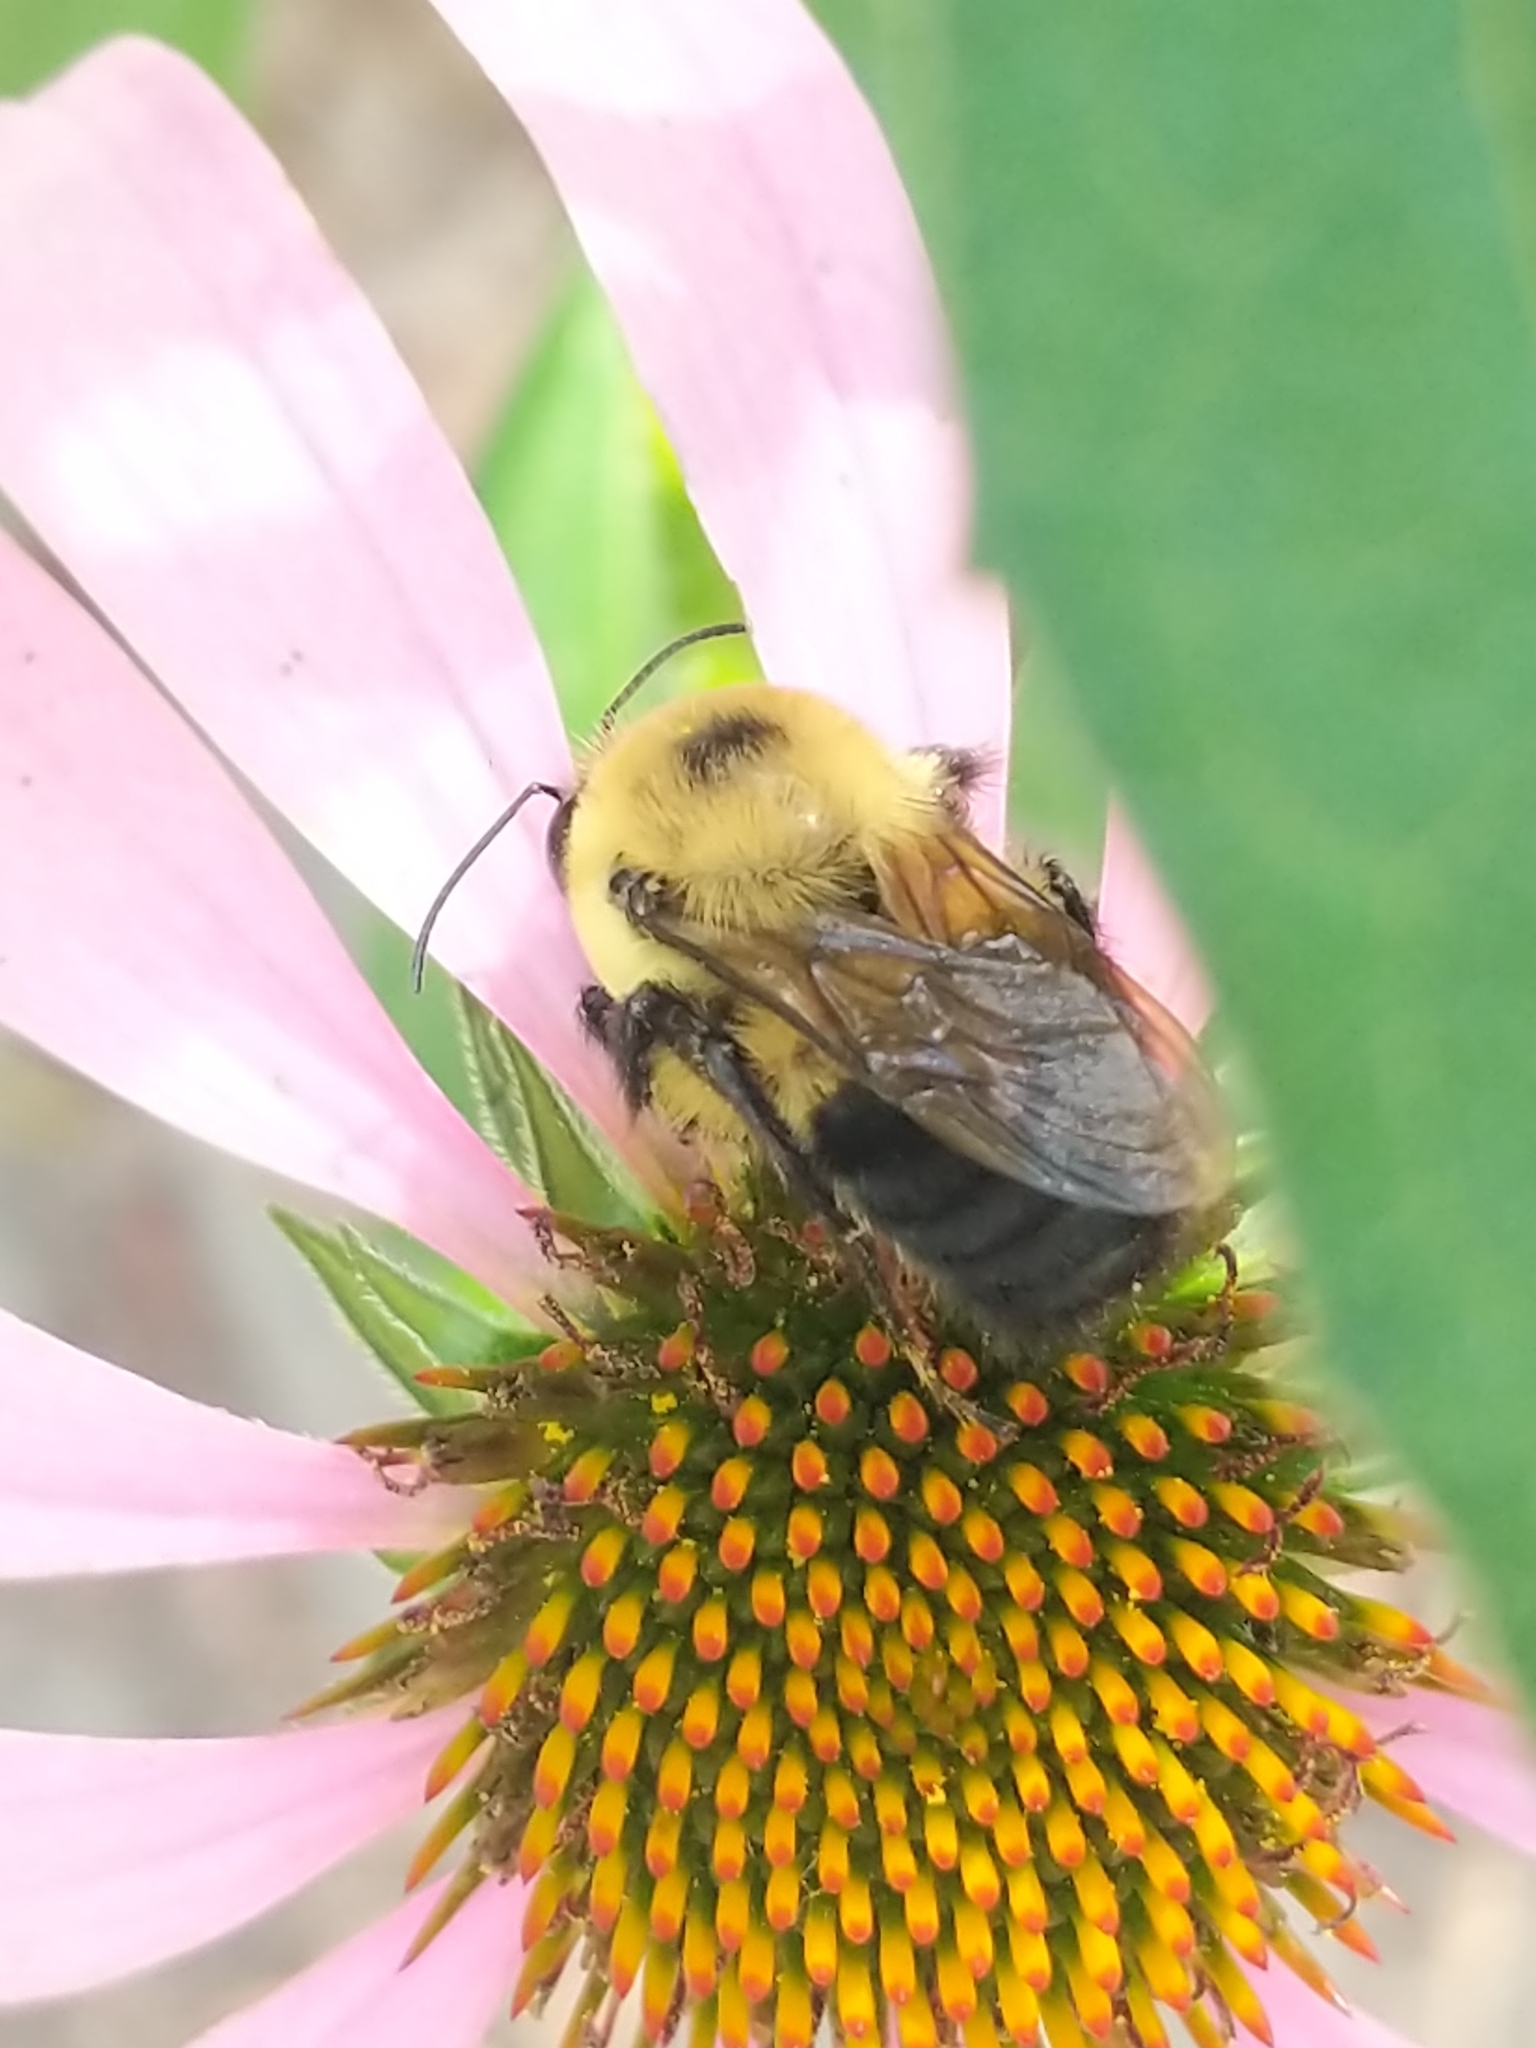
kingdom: Animalia
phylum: Arthropoda
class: Insecta
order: Hymenoptera
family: Apidae
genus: Bombus
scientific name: Bombus griseocollis
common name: Brown-belted bumble bee
